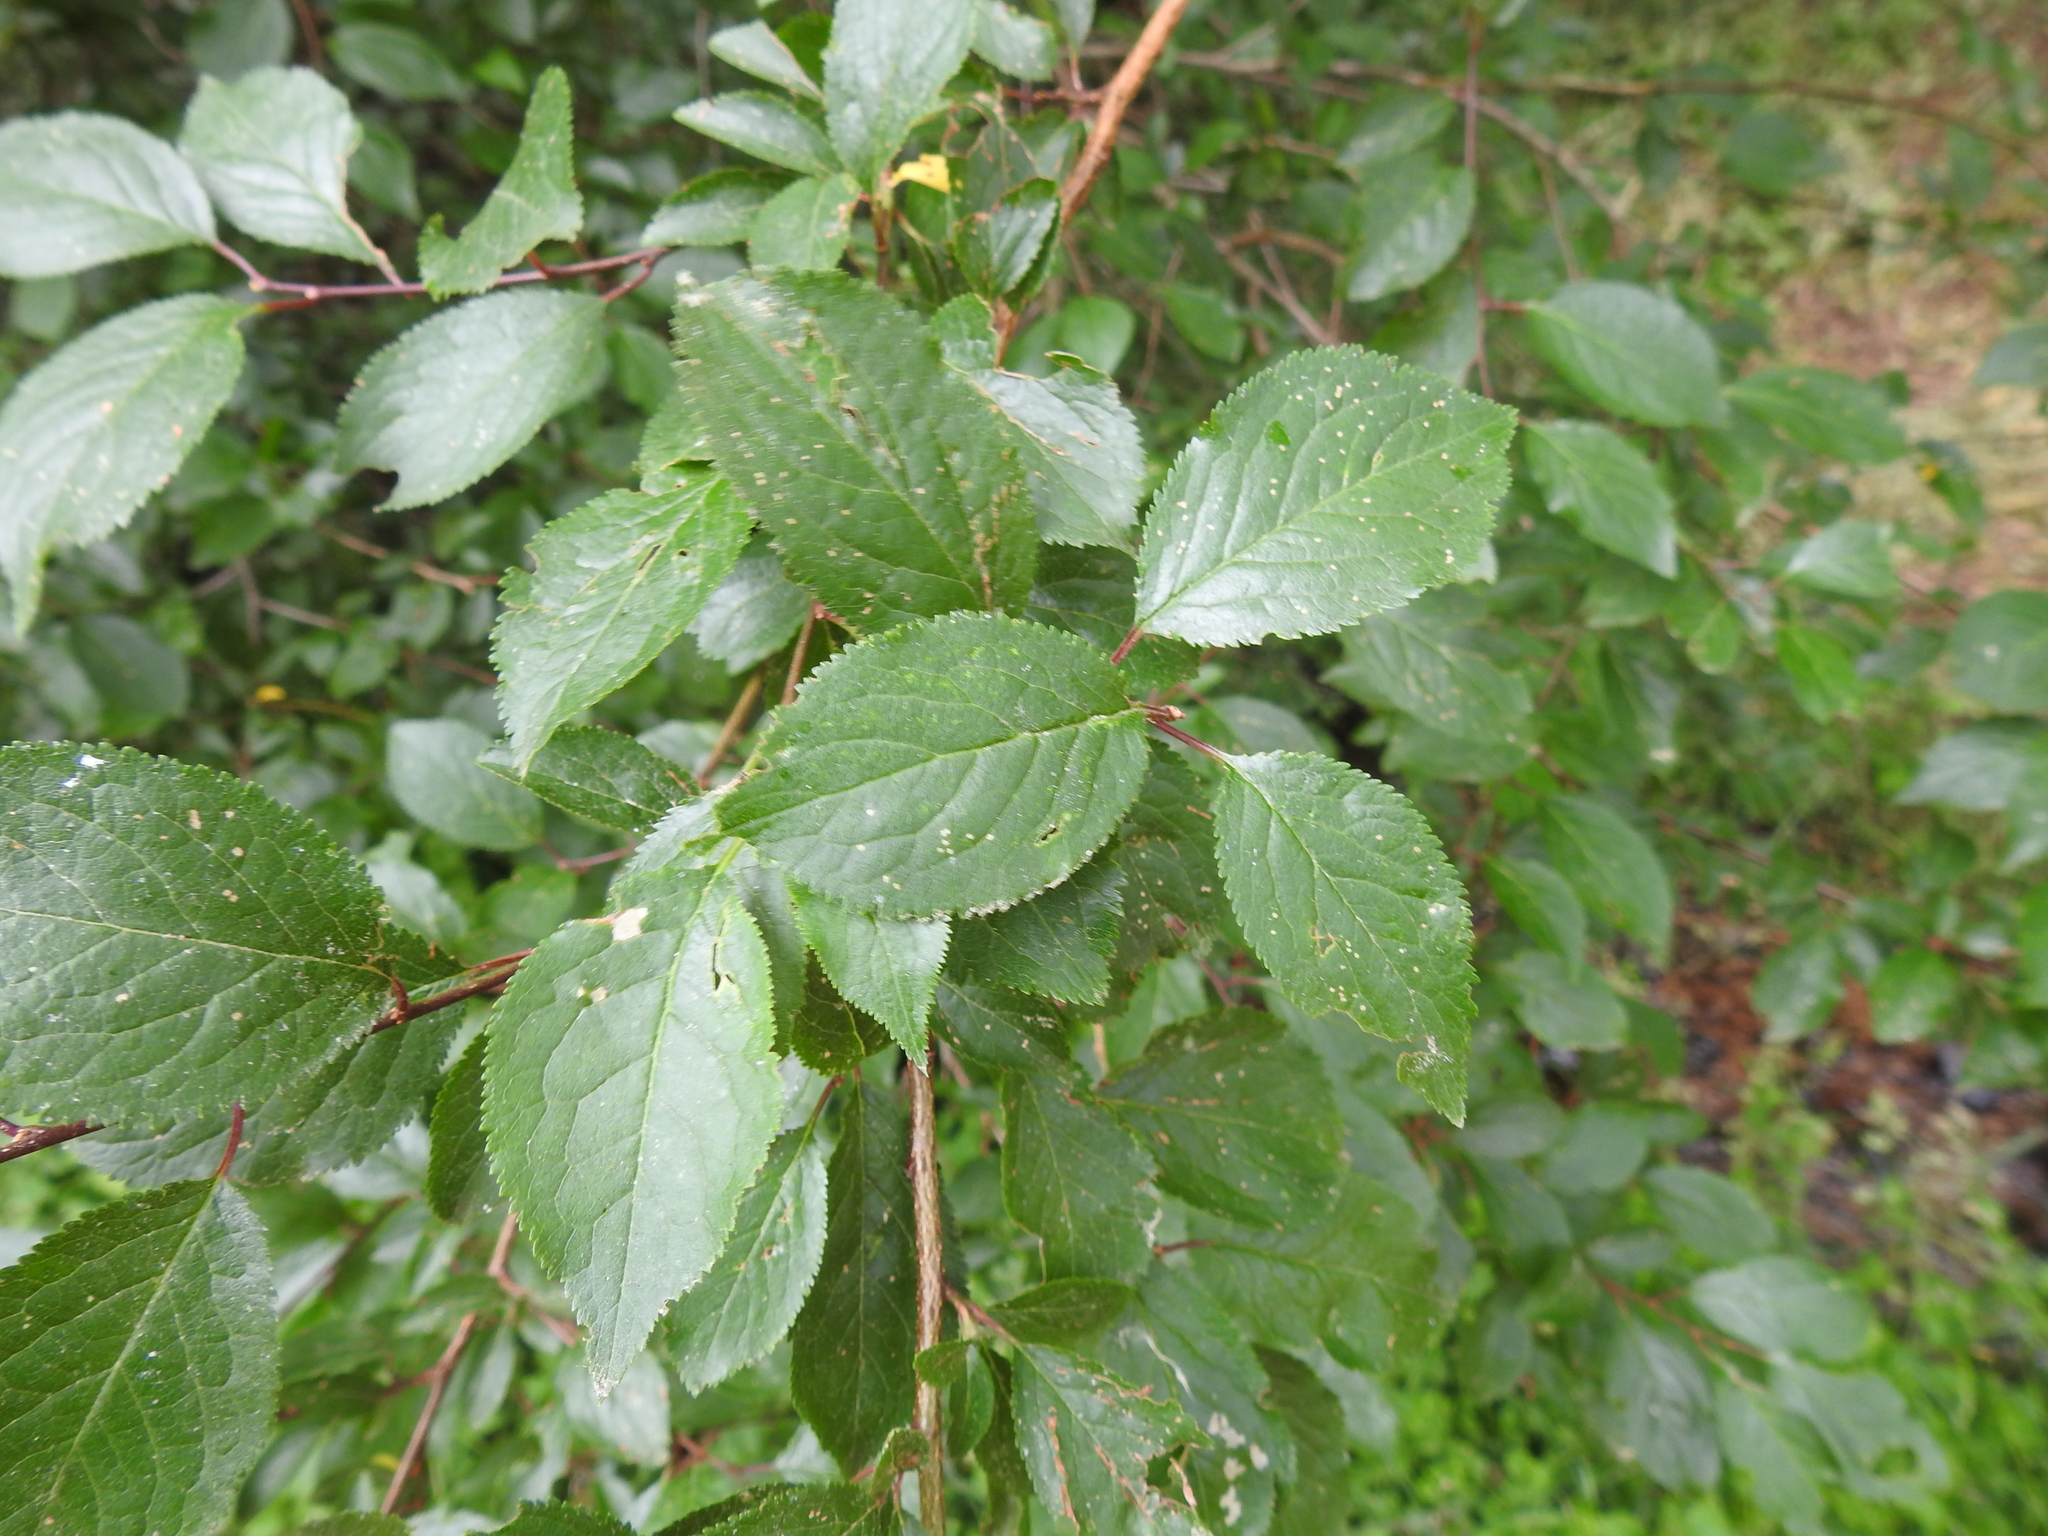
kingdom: Plantae
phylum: Tracheophyta
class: Magnoliopsida
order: Rosales
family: Rosaceae
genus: Prunus
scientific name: Prunus cerasifera
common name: Cherry plum
